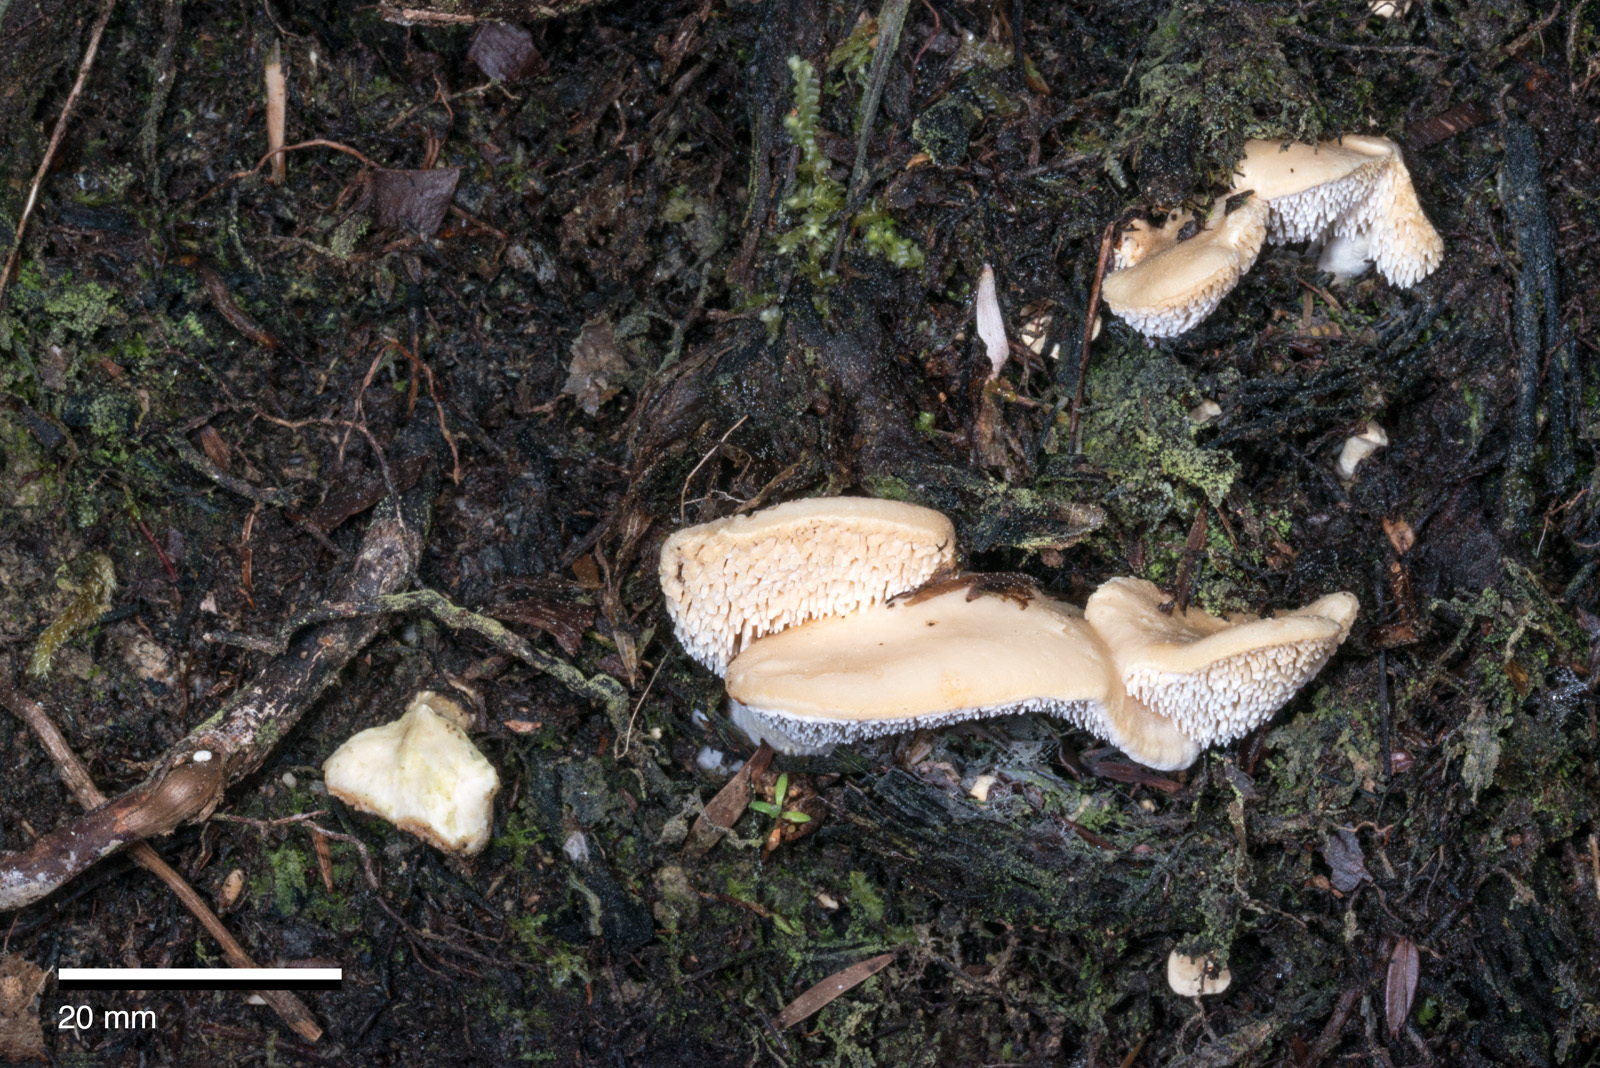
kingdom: Fungi
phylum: Basidiomycota
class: Agaricomycetes
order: Cantharellales
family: Hydnaceae
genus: Hydnum
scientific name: Hydnum ambustum
